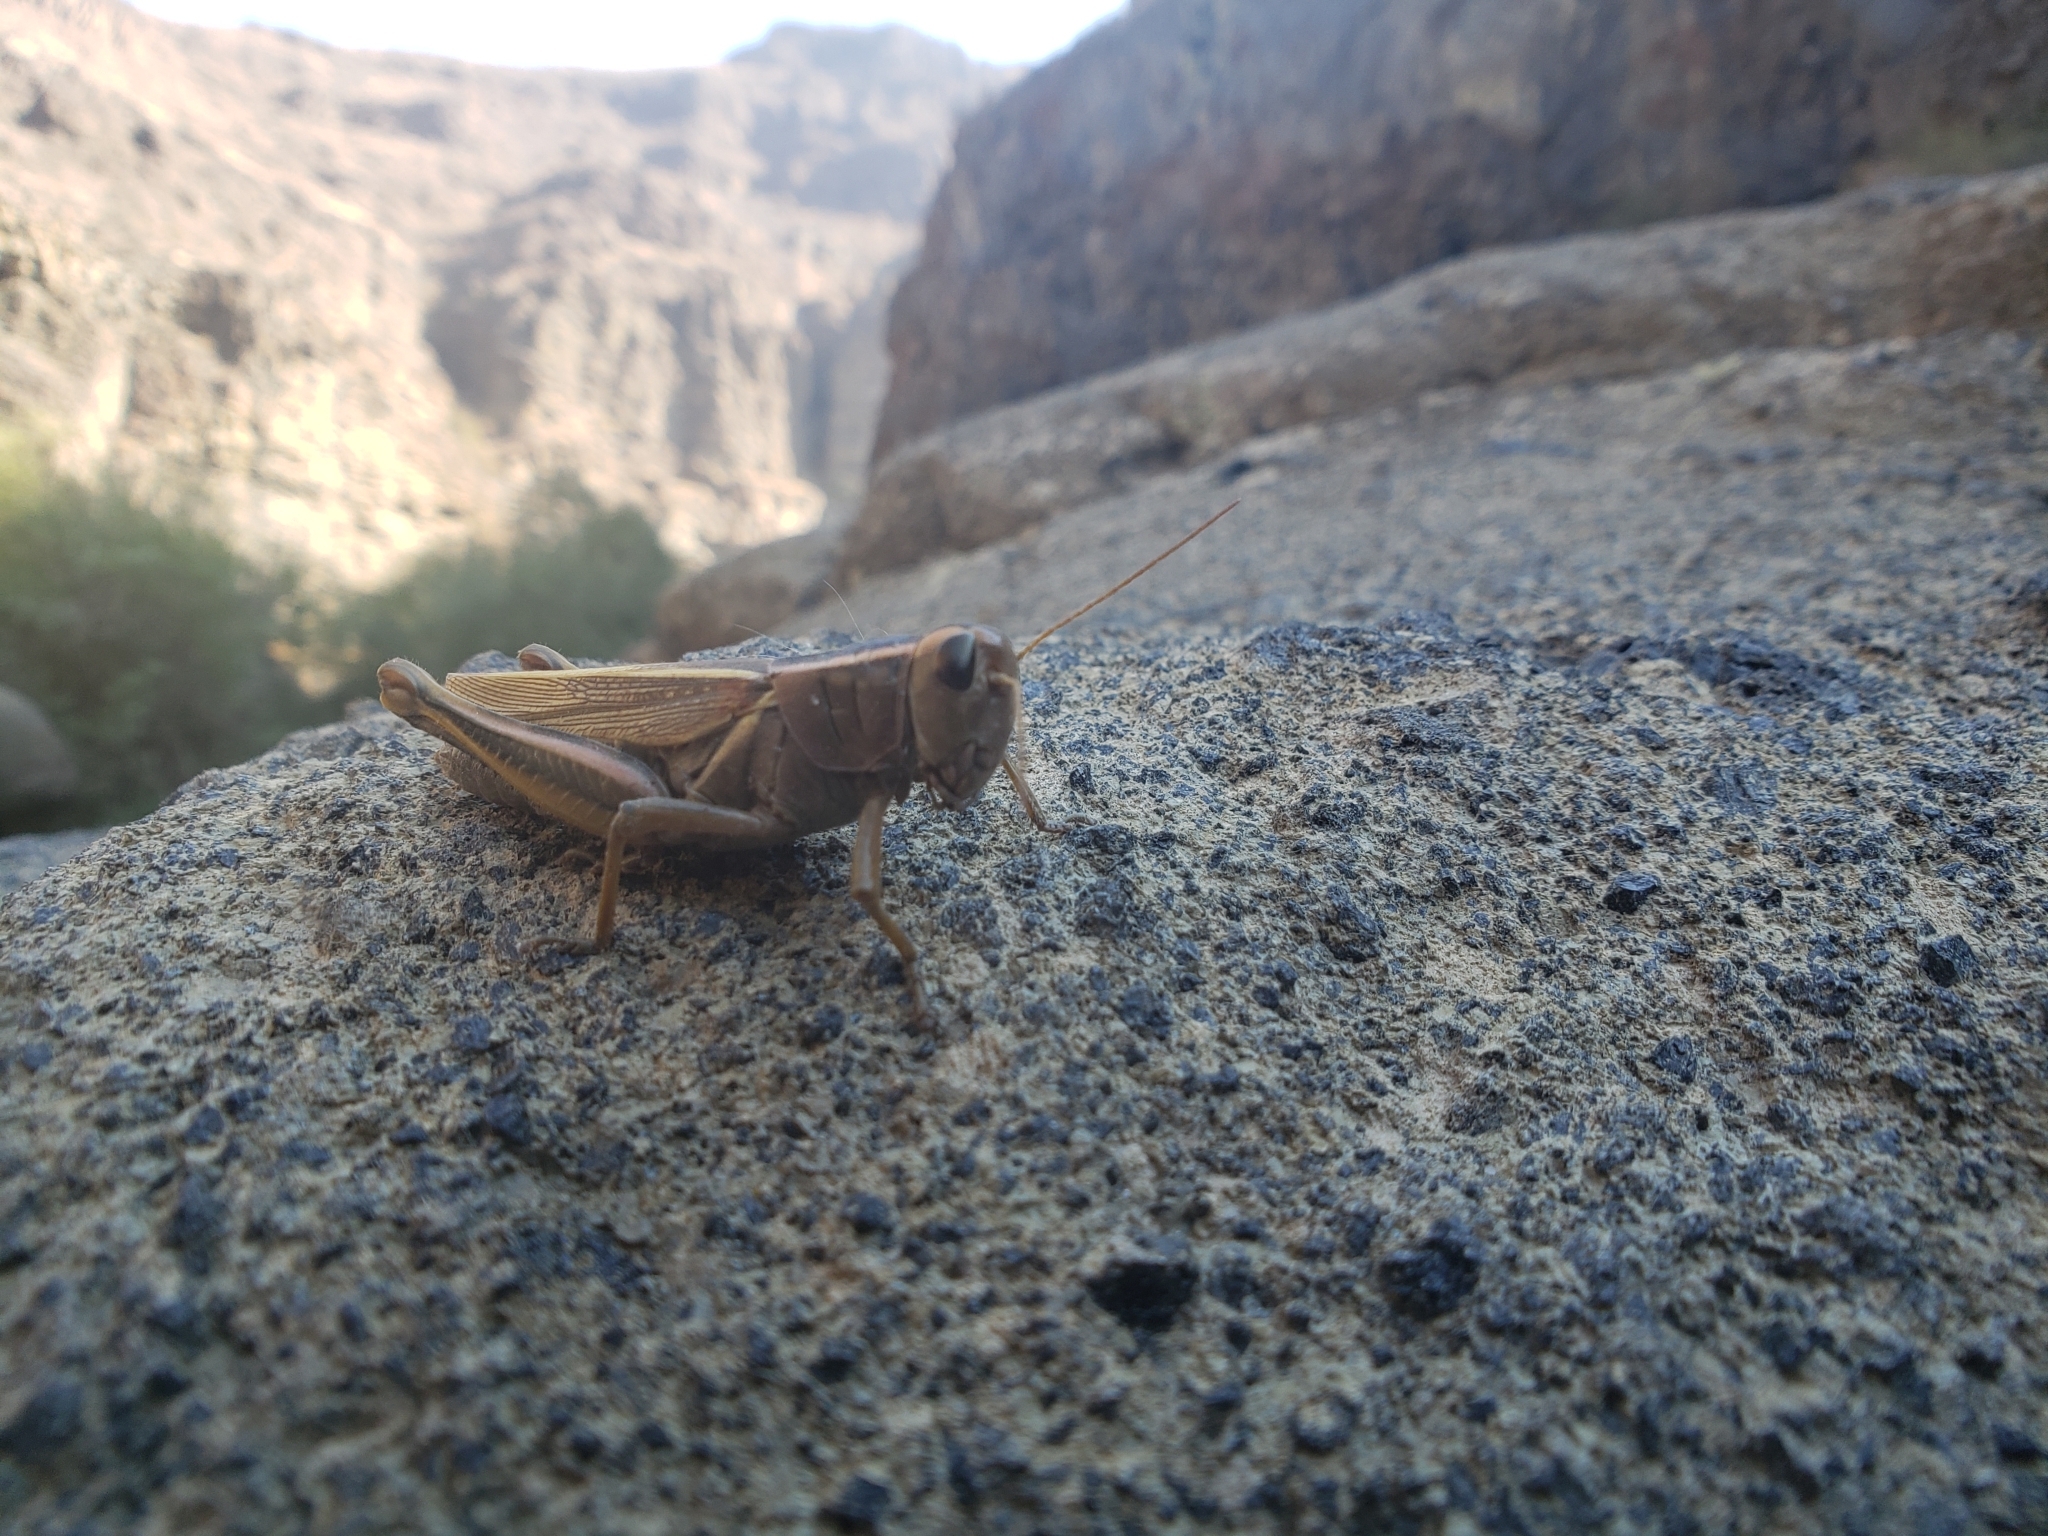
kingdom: Animalia
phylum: Arthropoda
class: Insecta
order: Orthoptera
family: Acrididae
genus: Melanoplus
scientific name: Melanoplus bivittatus
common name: Two-striped grasshopper
